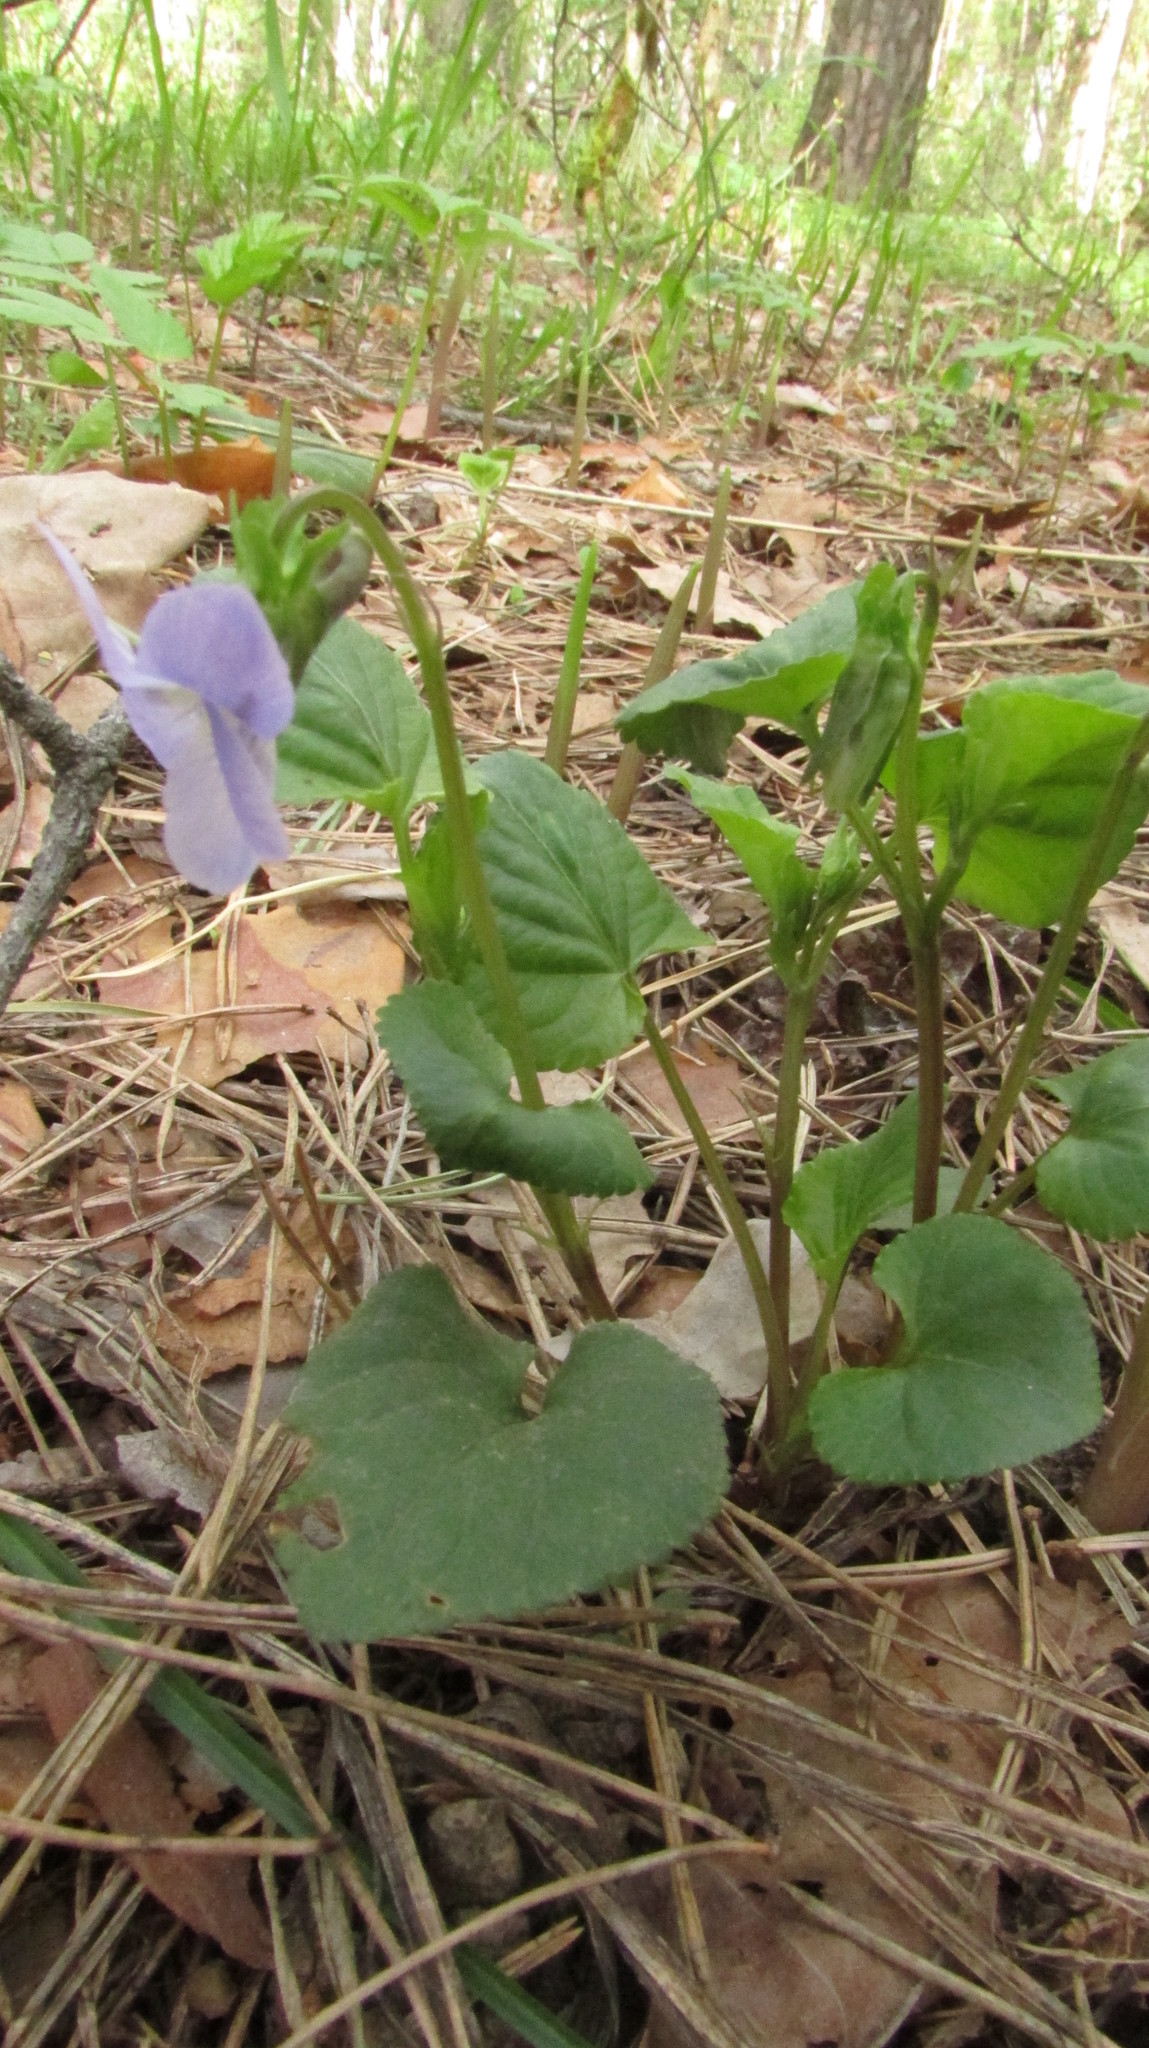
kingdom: Plantae
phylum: Tracheophyta
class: Magnoliopsida
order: Malpighiales
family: Violaceae
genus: Viola
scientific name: Viola riviniana
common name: Common dog-violet
